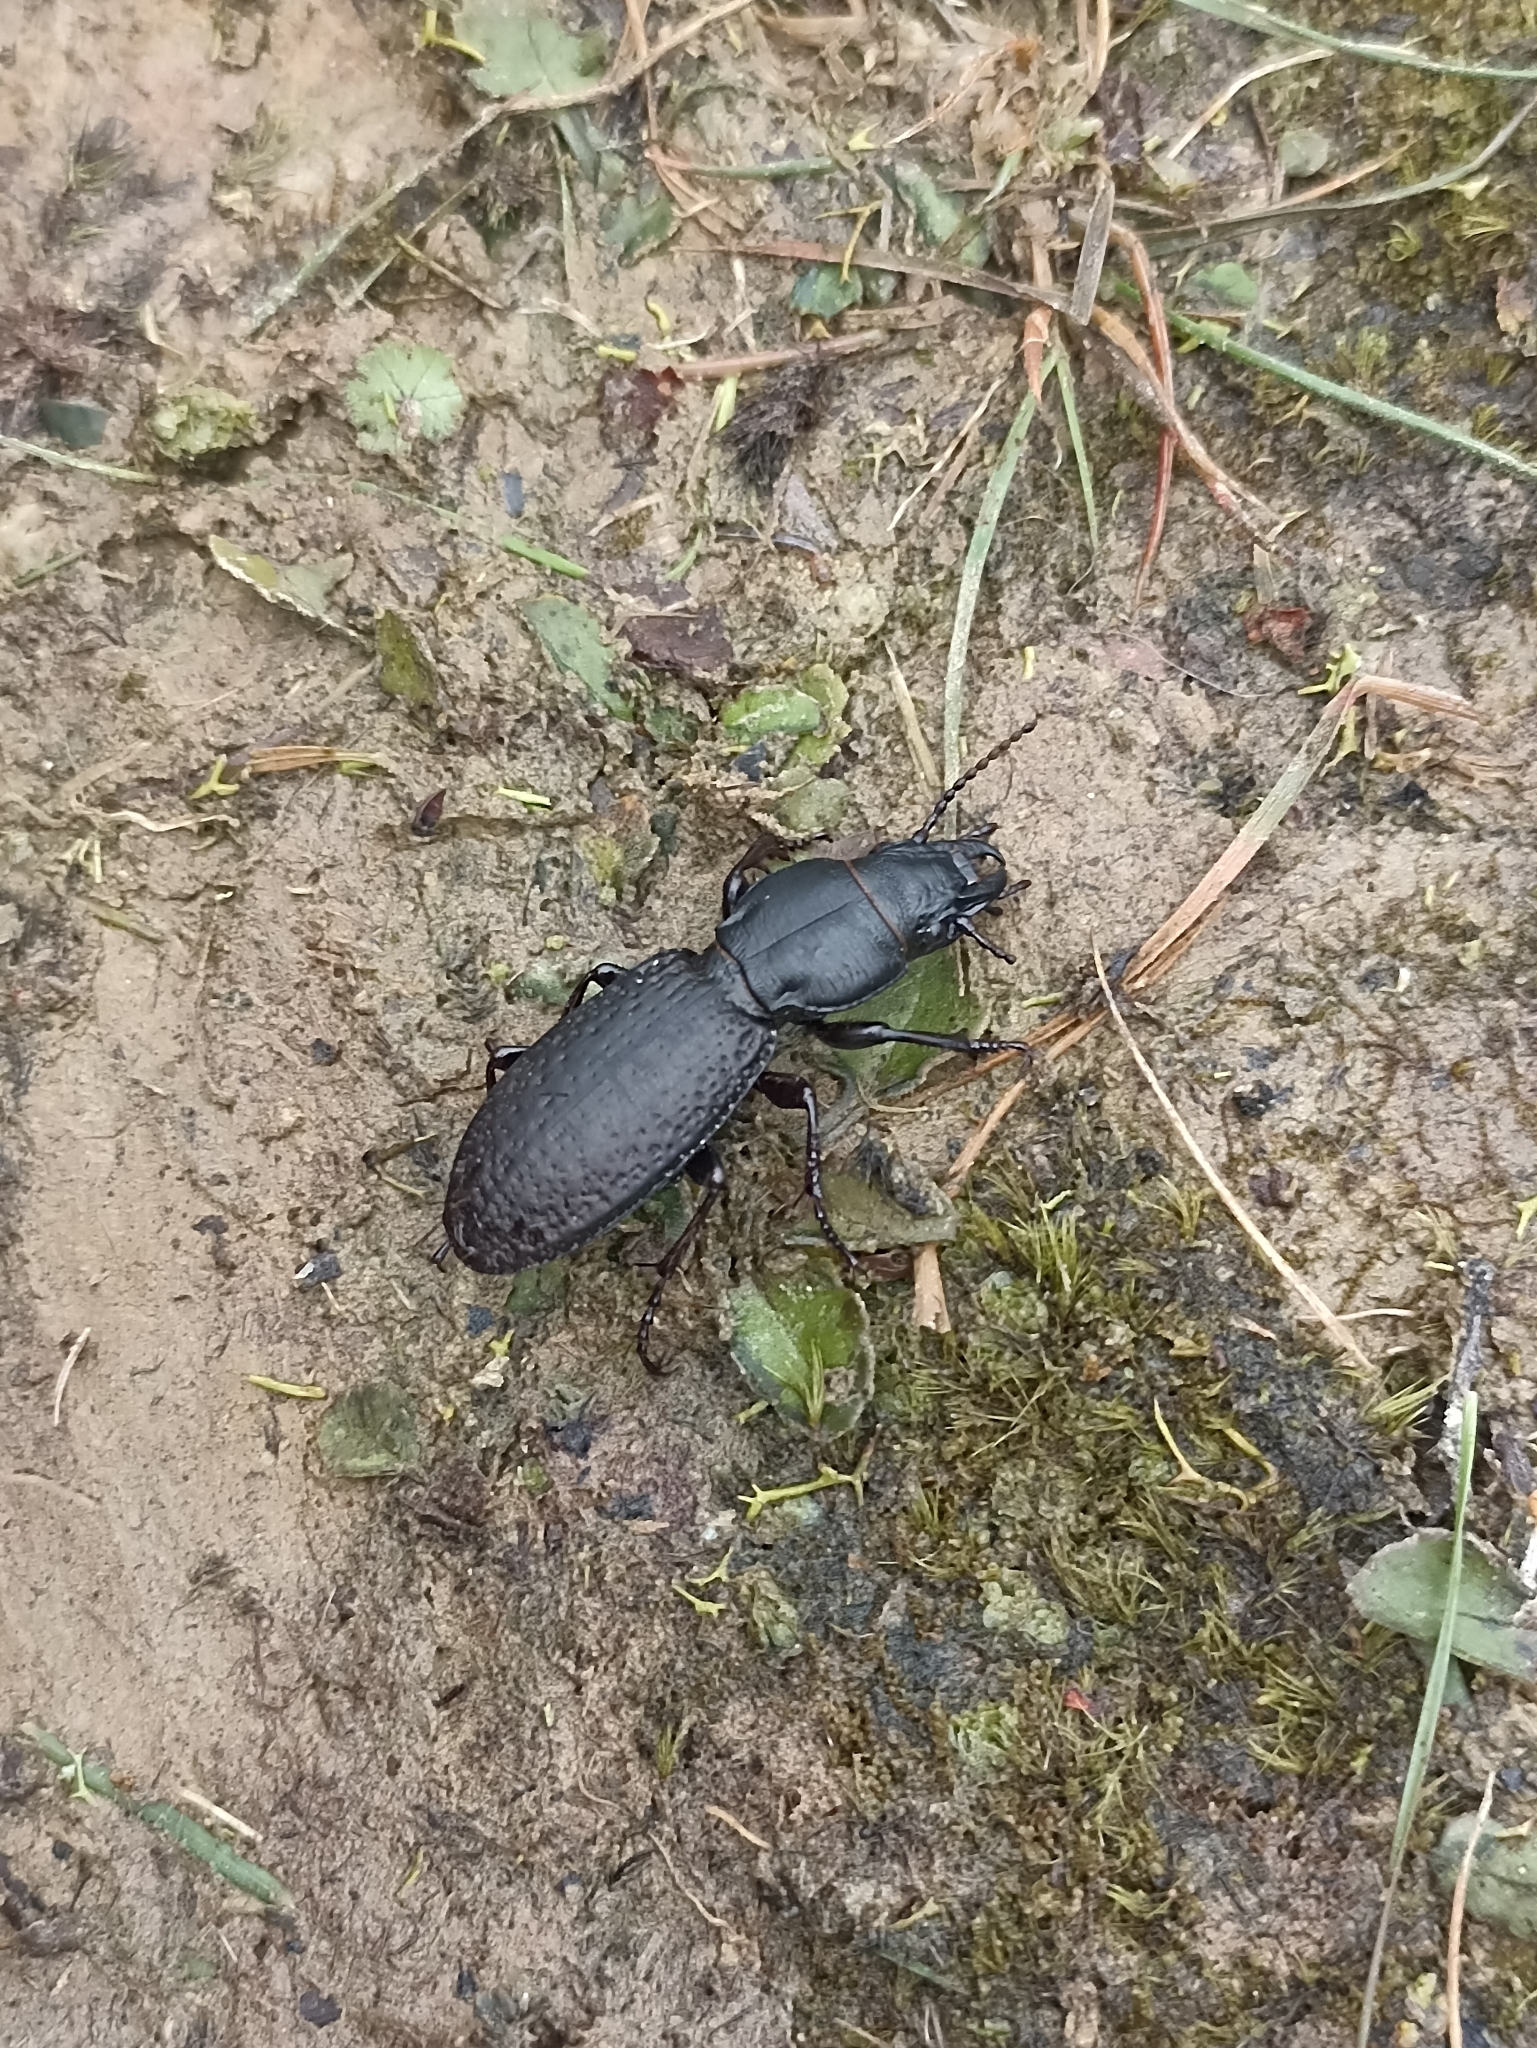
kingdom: Animalia
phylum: Arthropoda
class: Insecta
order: Coleoptera
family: Carabidae
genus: Mecodema
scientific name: Mecodema crenaticolle
